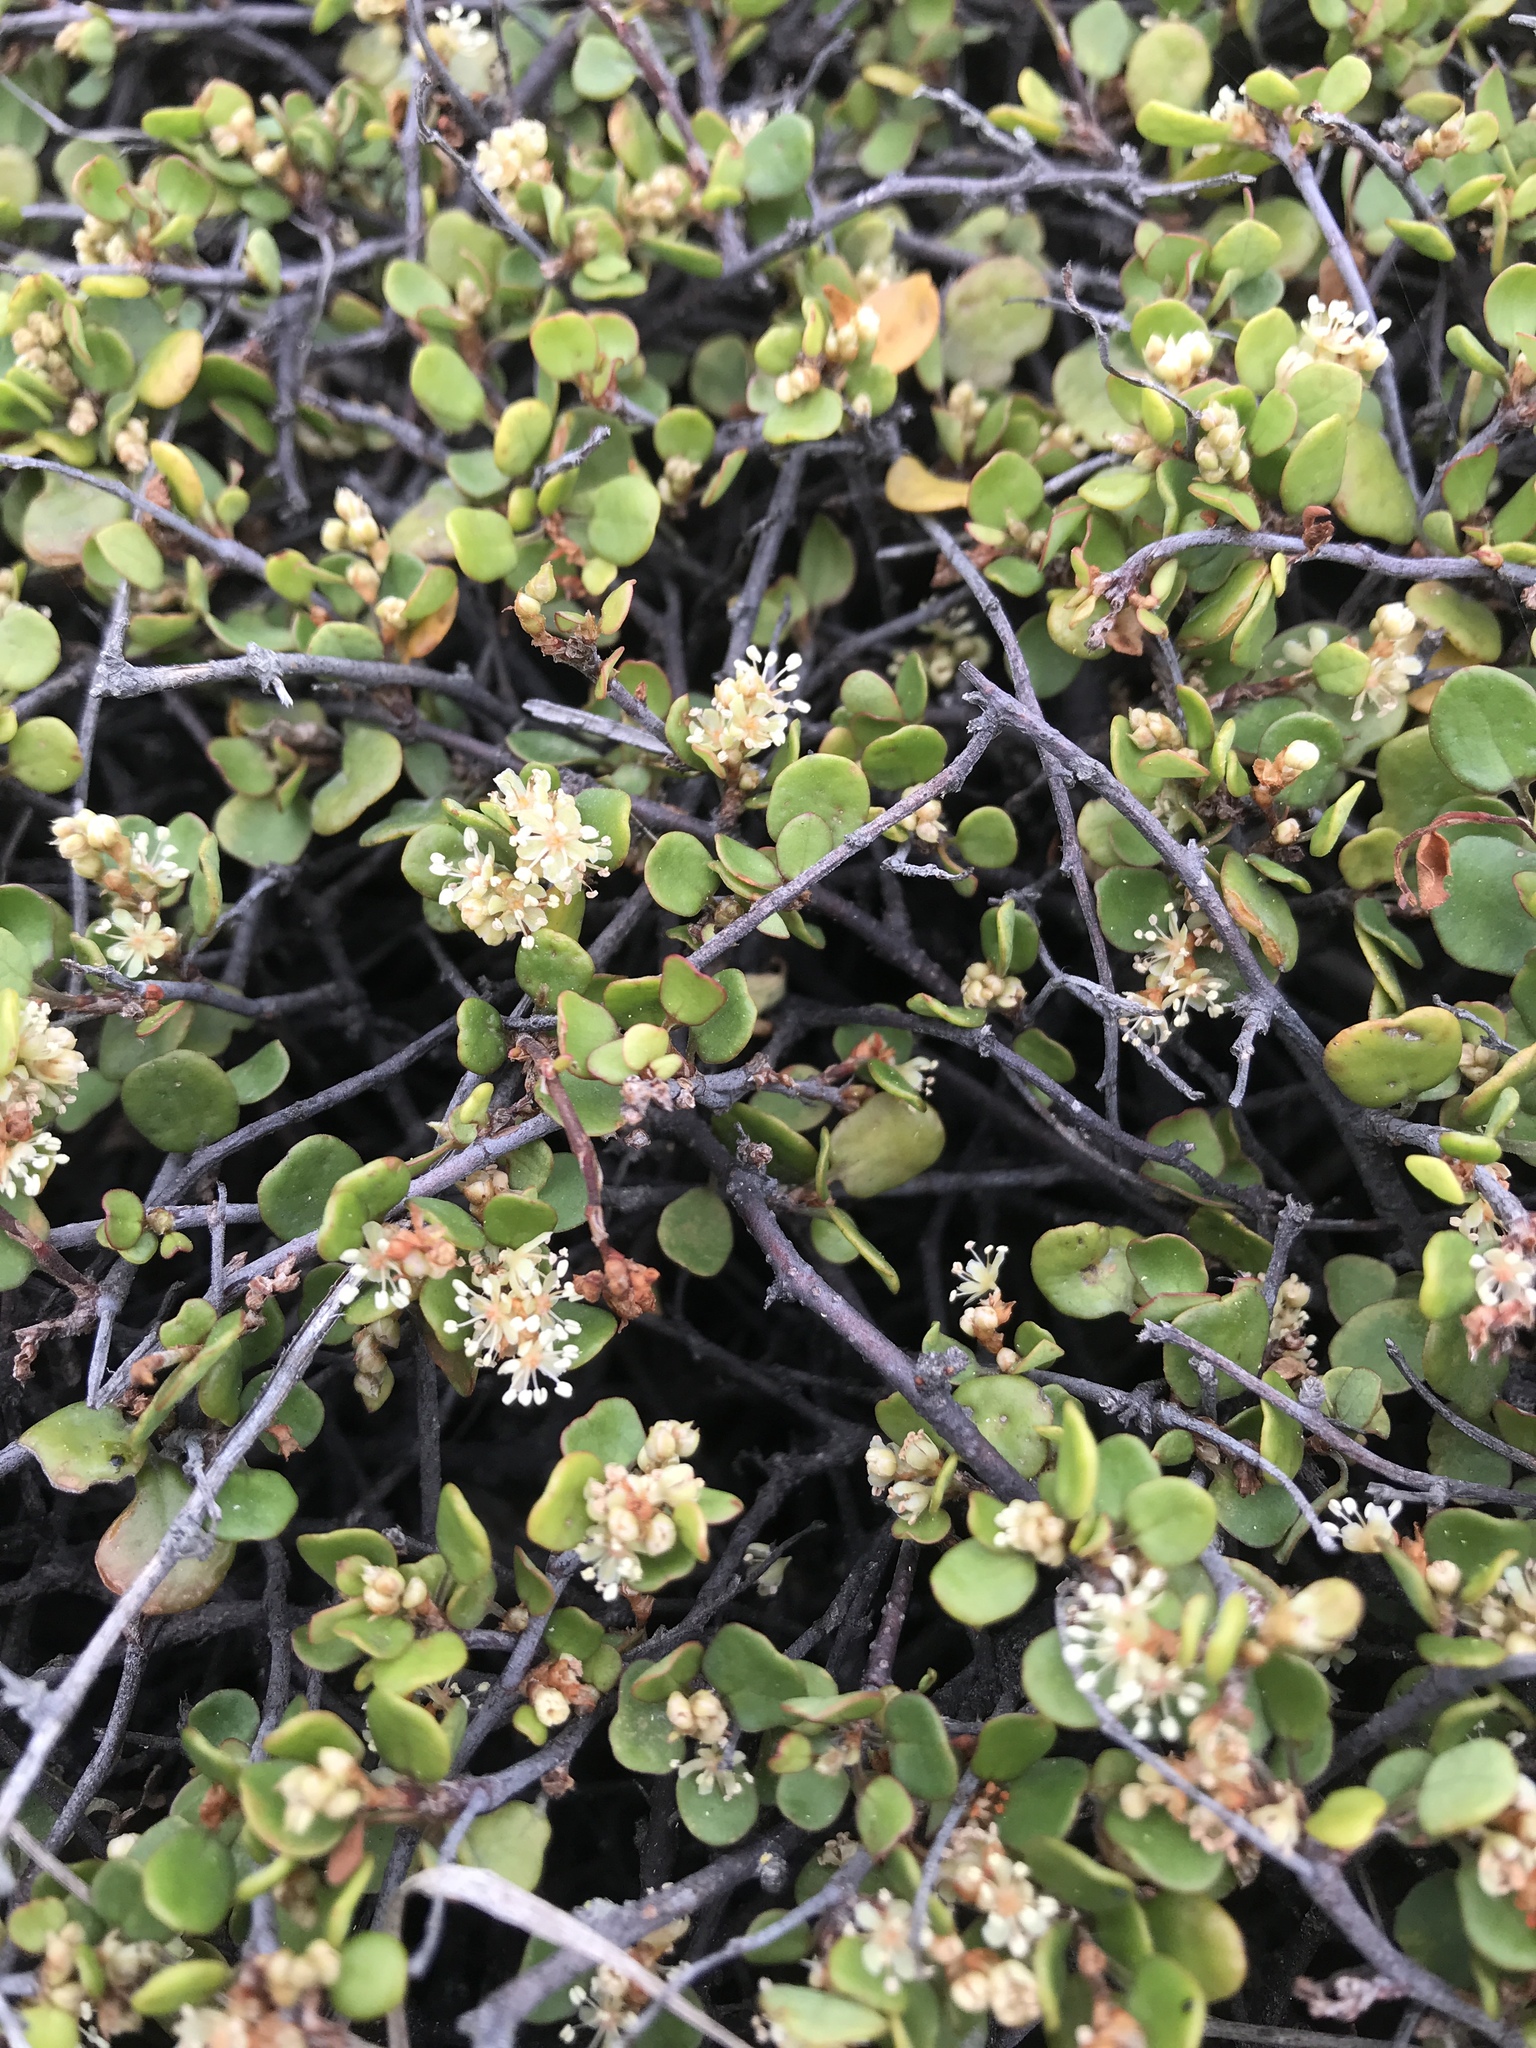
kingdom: Plantae
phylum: Tracheophyta
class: Magnoliopsida
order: Caryophyllales
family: Polygonaceae
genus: Muehlenbeckia
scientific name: Muehlenbeckia complexa
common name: Wireplant
